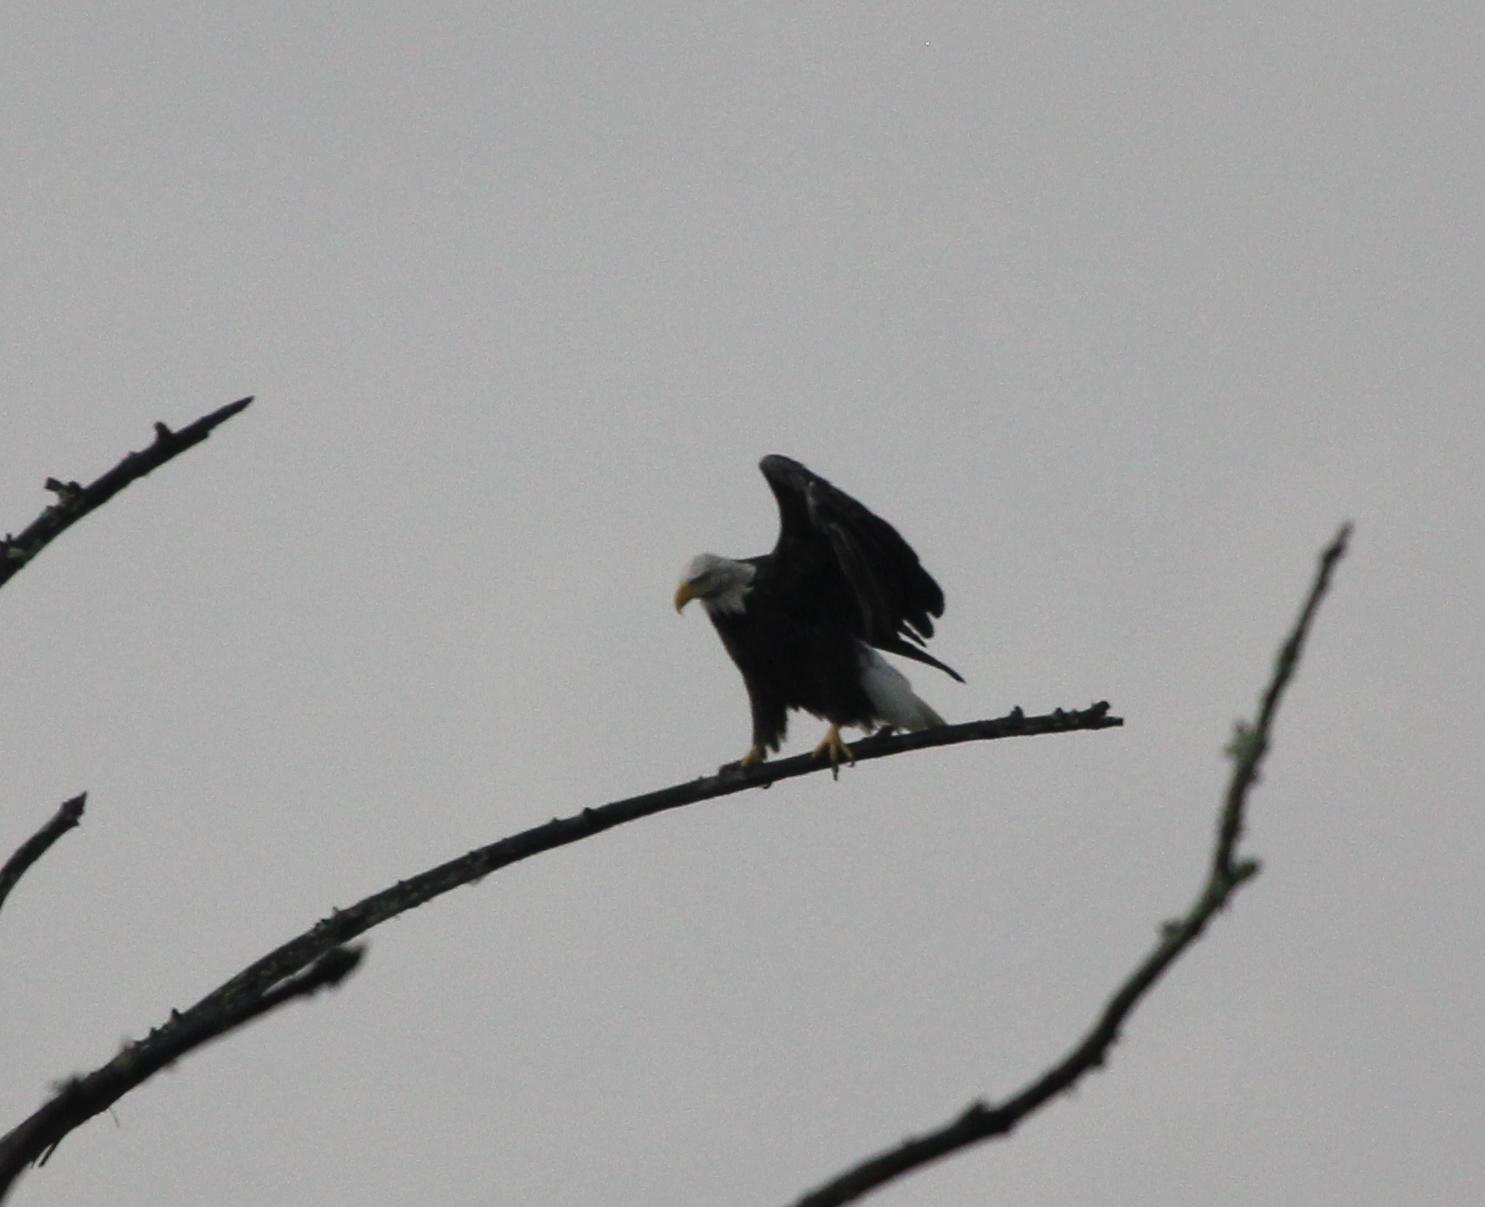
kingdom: Animalia
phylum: Chordata
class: Aves
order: Accipitriformes
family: Accipitridae
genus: Haliaeetus
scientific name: Haliaeetus leucocephalus
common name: Bald eagle
